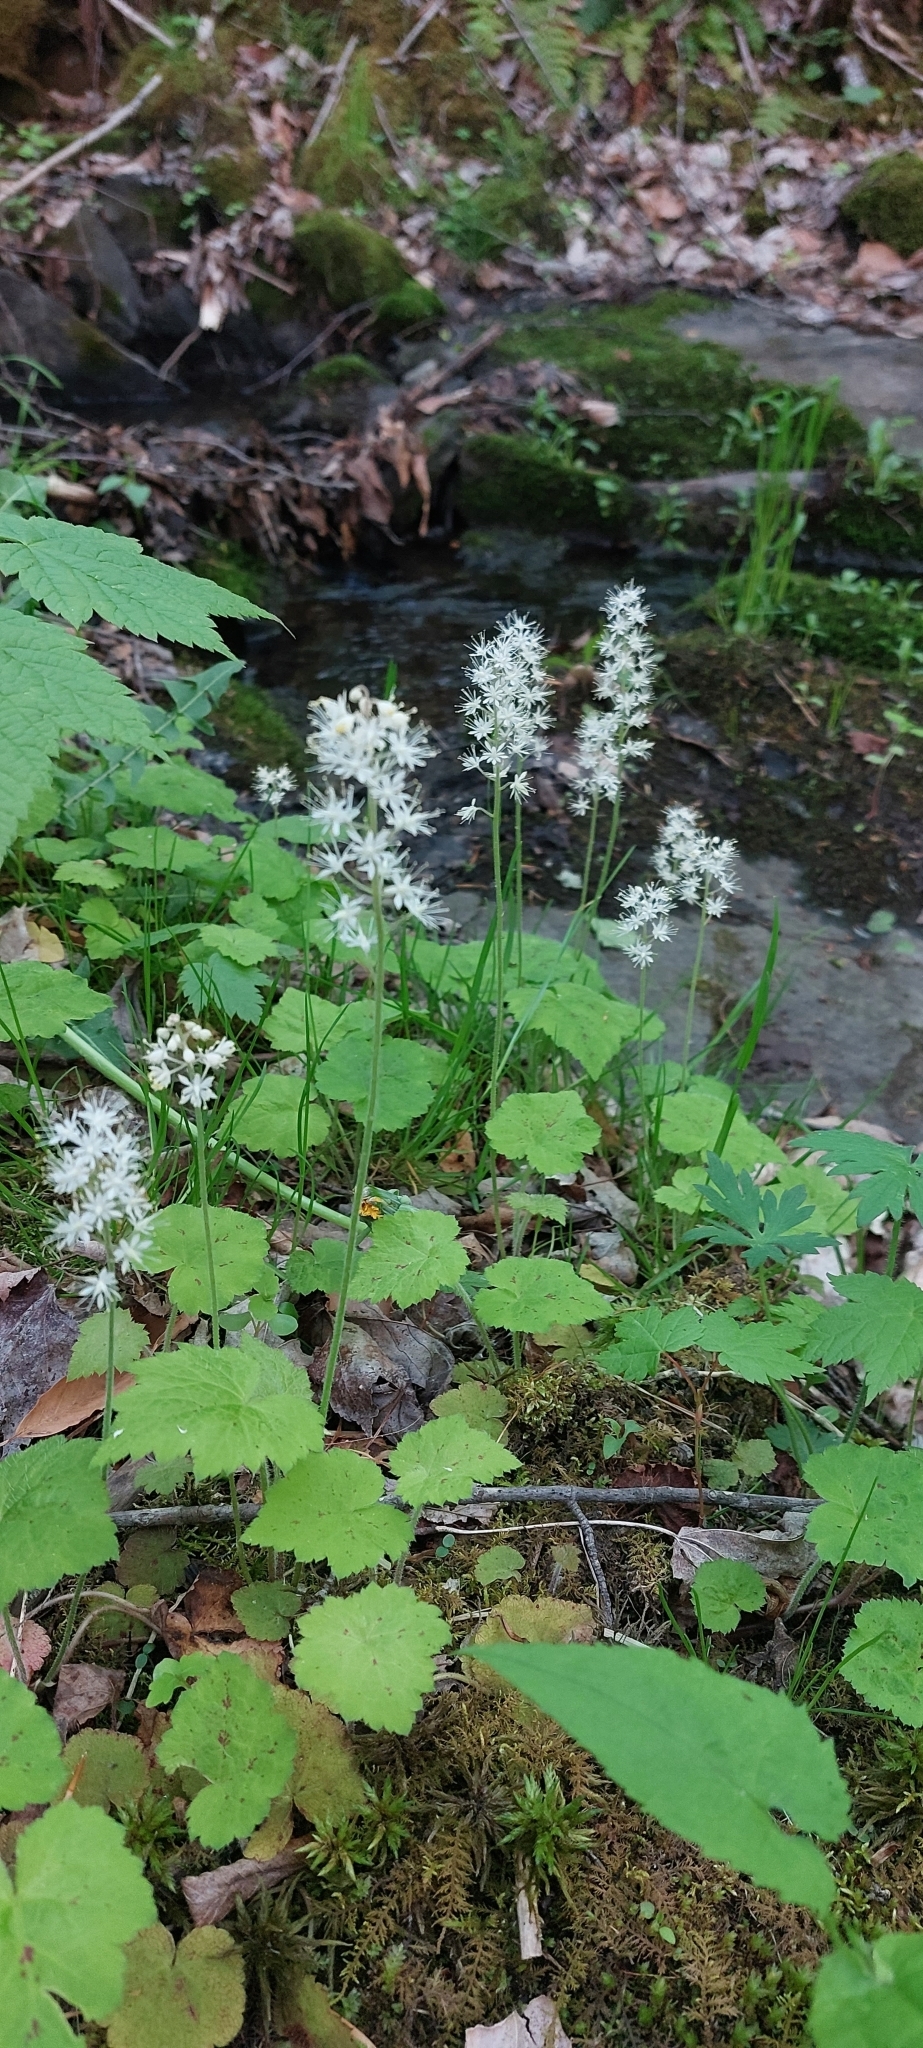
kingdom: Plantae
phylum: Tracheophyta
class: Magnoliopsida
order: Saxifragales
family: Saxifragaceae
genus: Tiarella
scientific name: Tiarella stolonifera
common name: Stoloniferous foamflower
